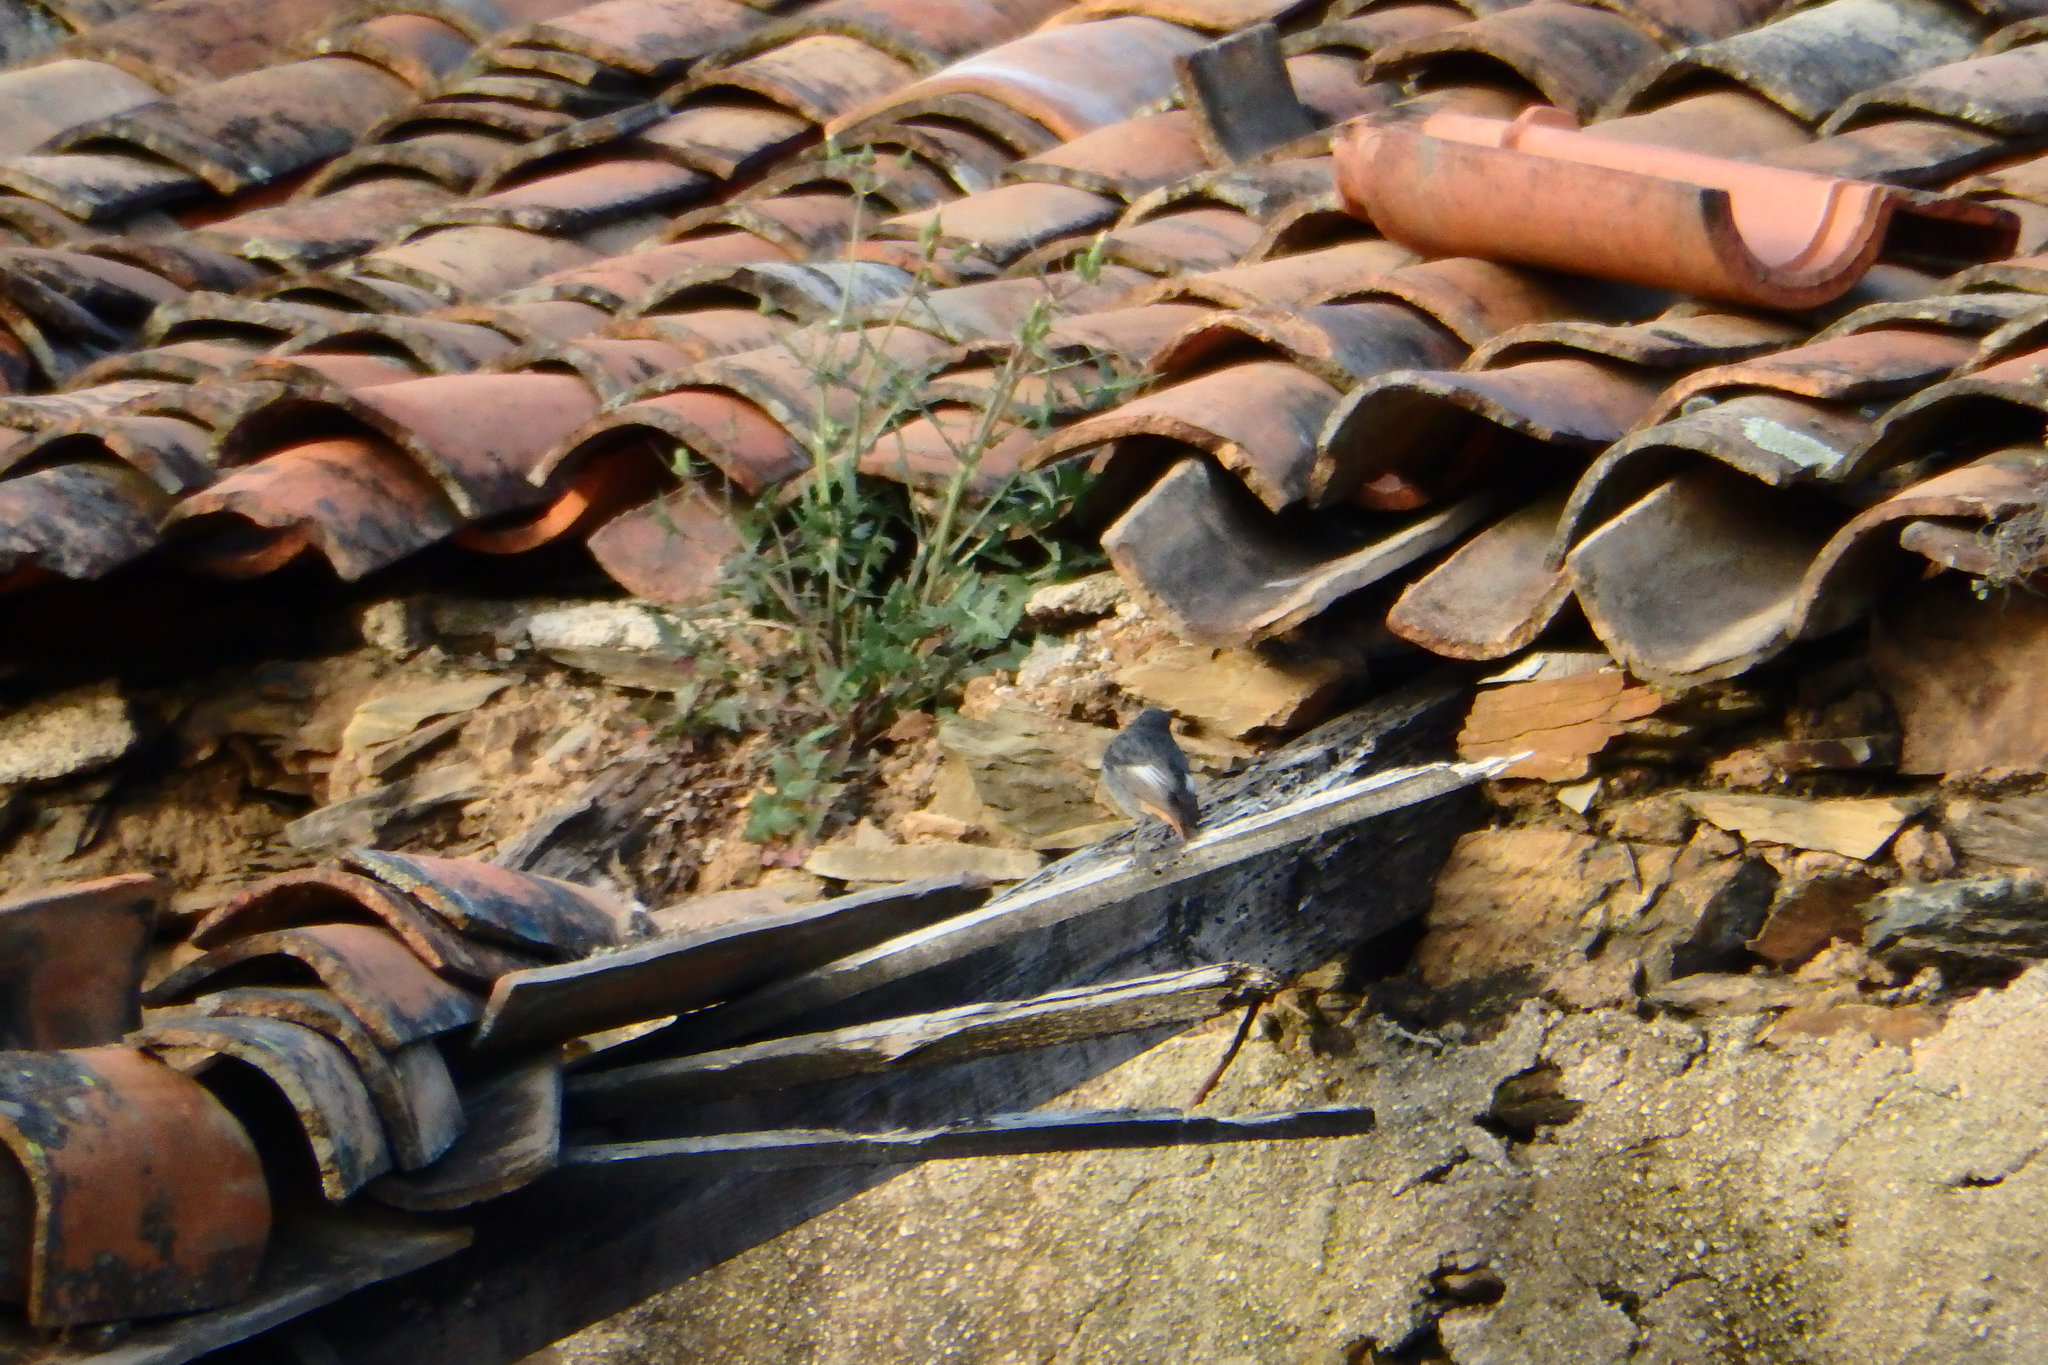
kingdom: Animalia
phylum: Chordata
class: Aves
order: Passeriformes
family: Muscicapidae
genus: Phoenicurus
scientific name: Phoenicurus ochruros
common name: Black redstart
